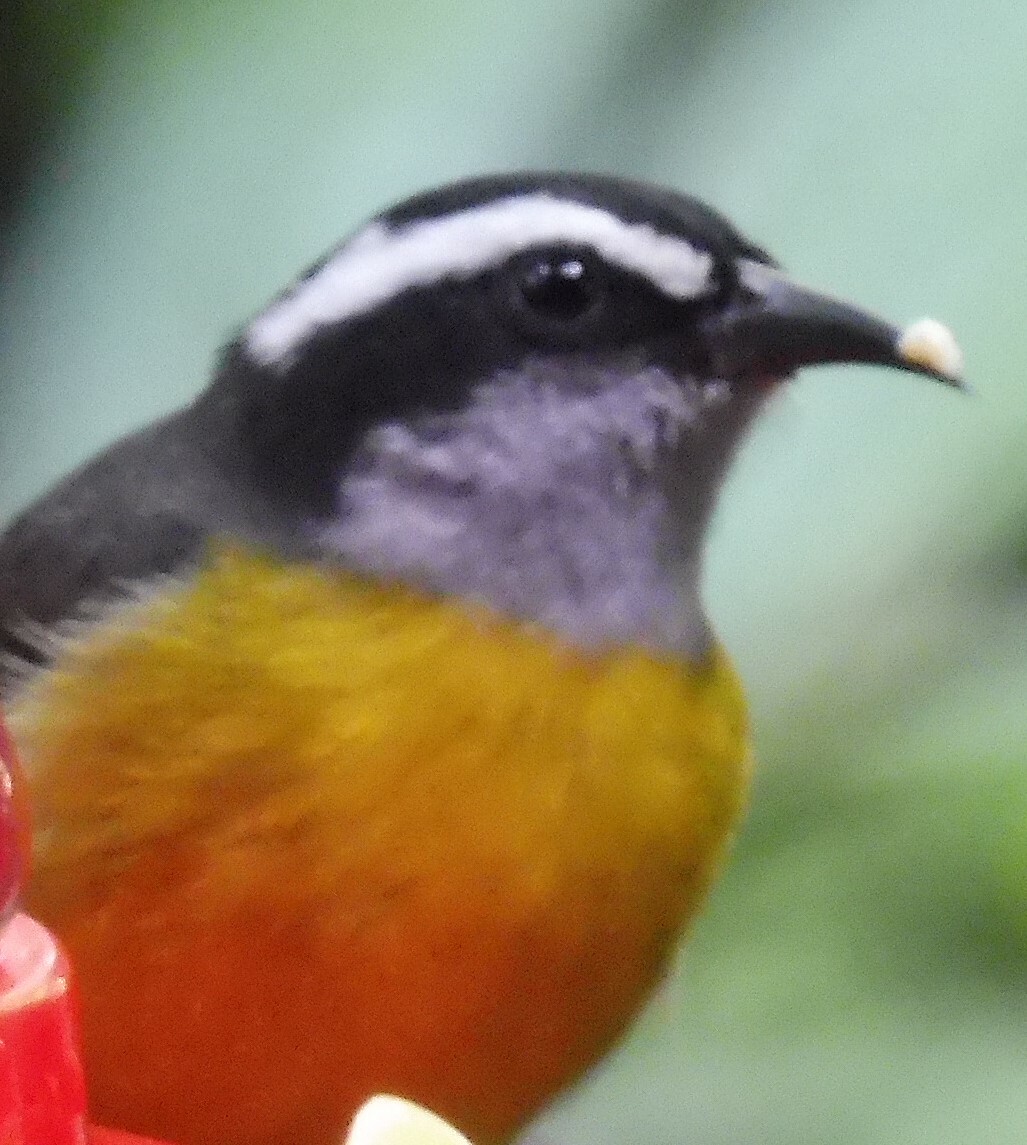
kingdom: Animalia
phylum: Chordata
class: Aves
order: Passeriformes
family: Thraupidae
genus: Coereba
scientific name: Coereba flaveola
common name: Bananaquit
